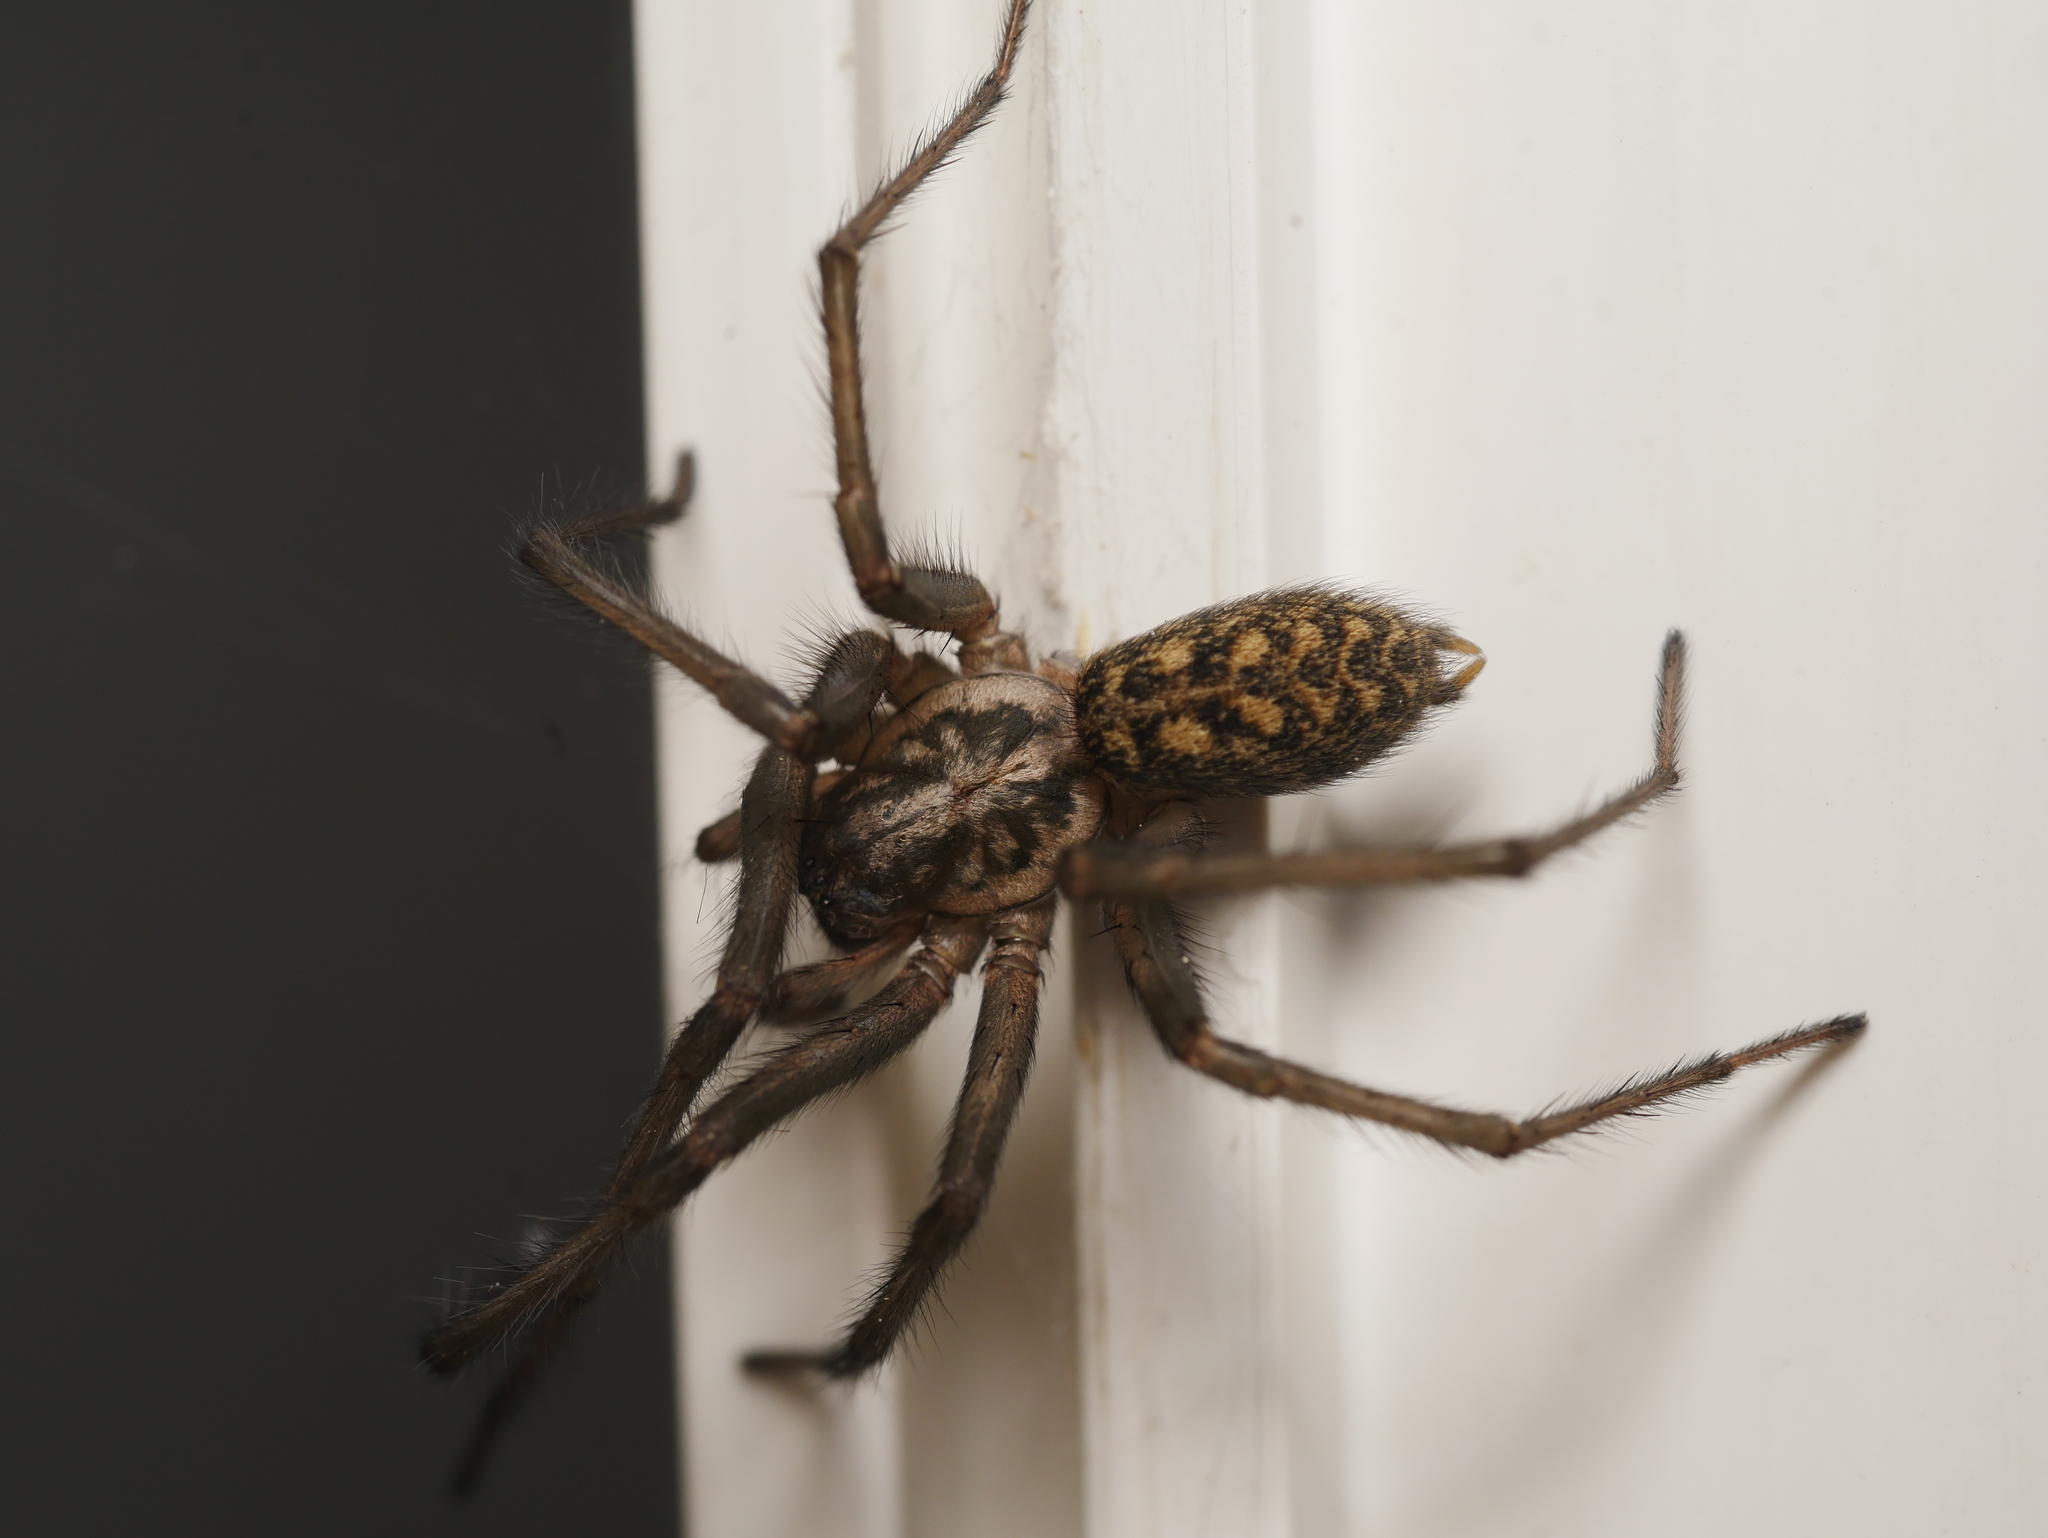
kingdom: Animalia
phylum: Arthropoda
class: Arachnida
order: Araneae
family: Agelenidae
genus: Eratigena
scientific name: Eratigena atrica
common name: Giant house spider
